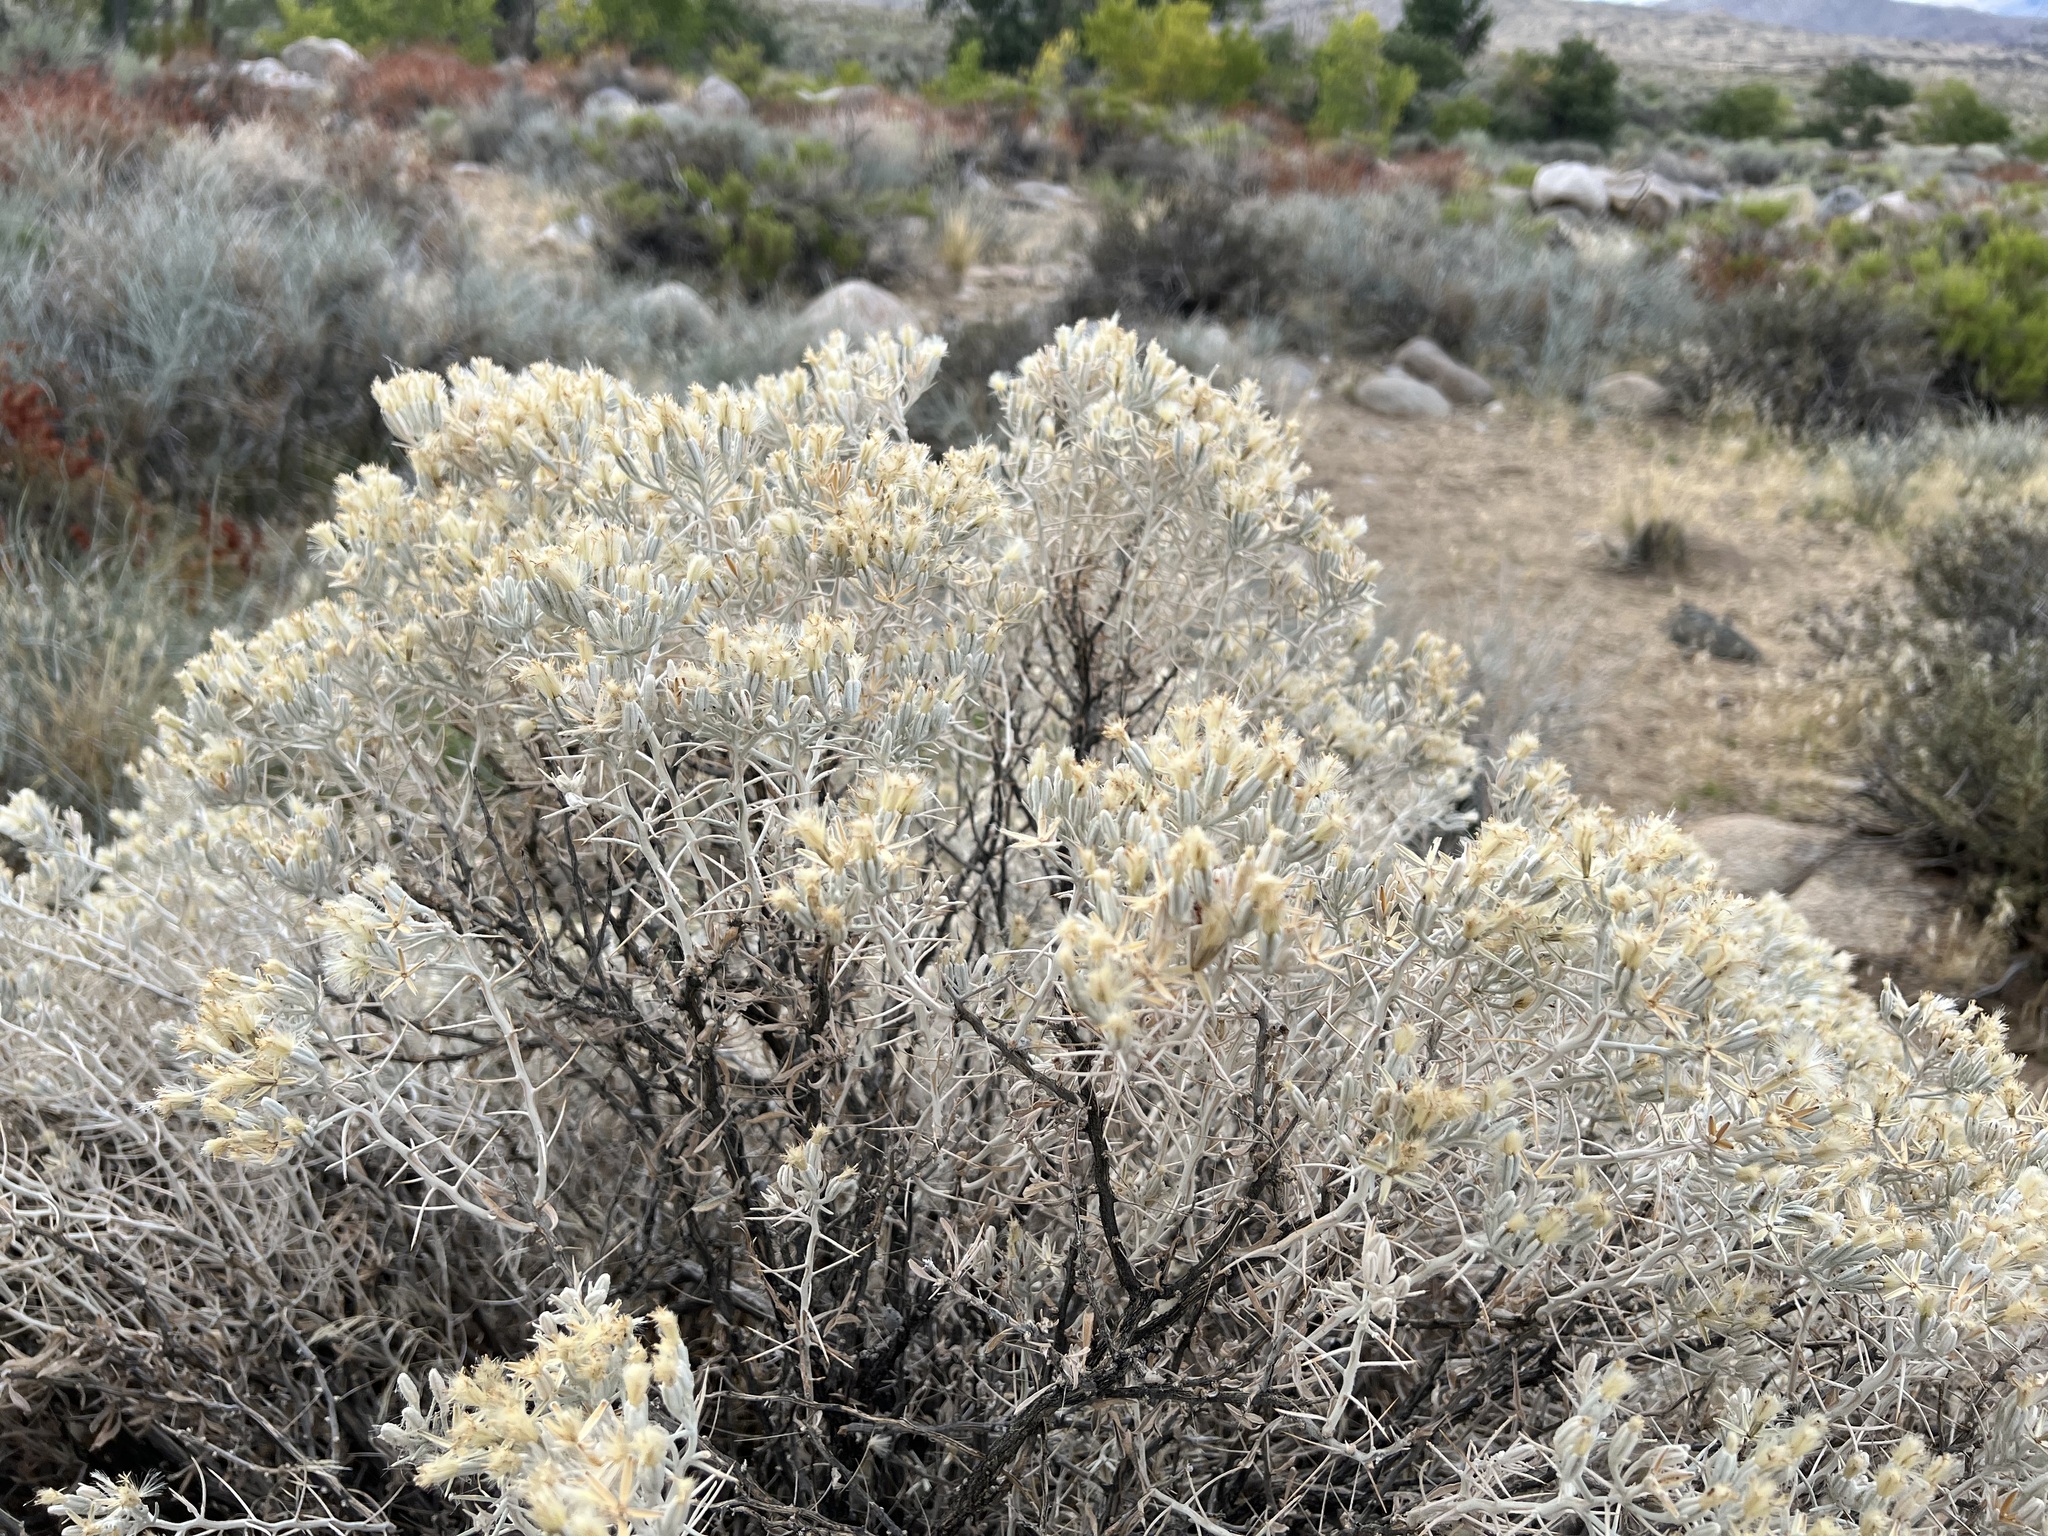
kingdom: Plantae
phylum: Tracheophyta
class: Magnoliopsida
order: Asterales
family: Asteraceae
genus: Tetradymia
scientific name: Tetradymia stenolepis
